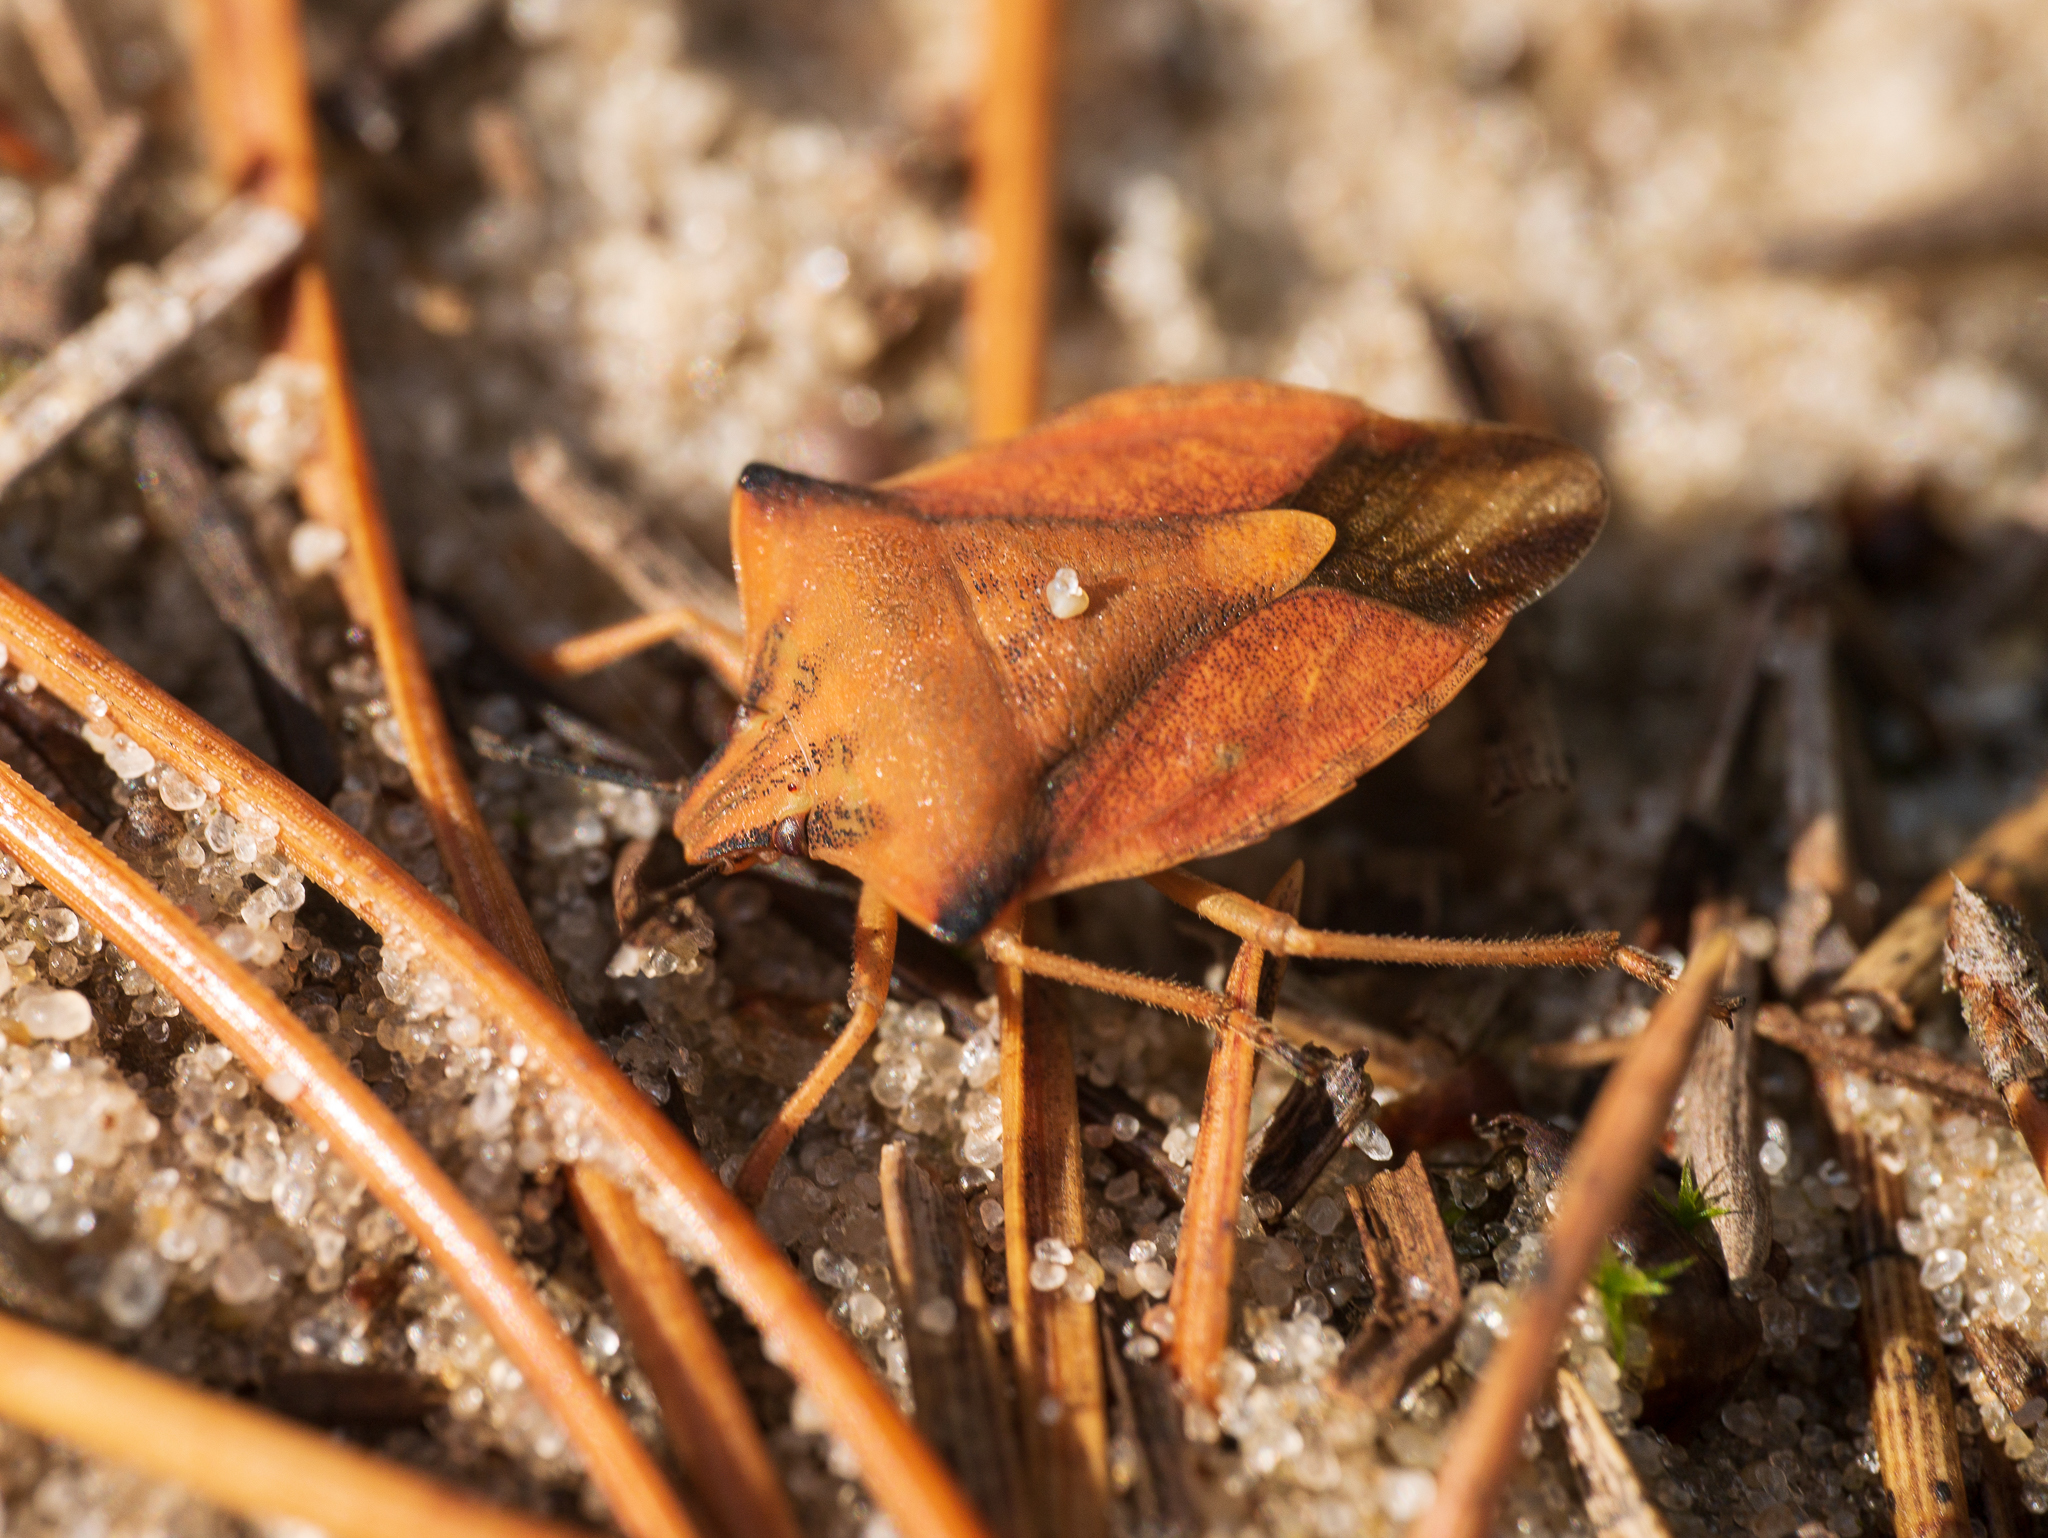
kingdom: Animalia
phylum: Arthropoda
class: Insecta
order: Hemiptera
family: Pentatomidae
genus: Carpocoris
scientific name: Carpocoris fuscispinus
